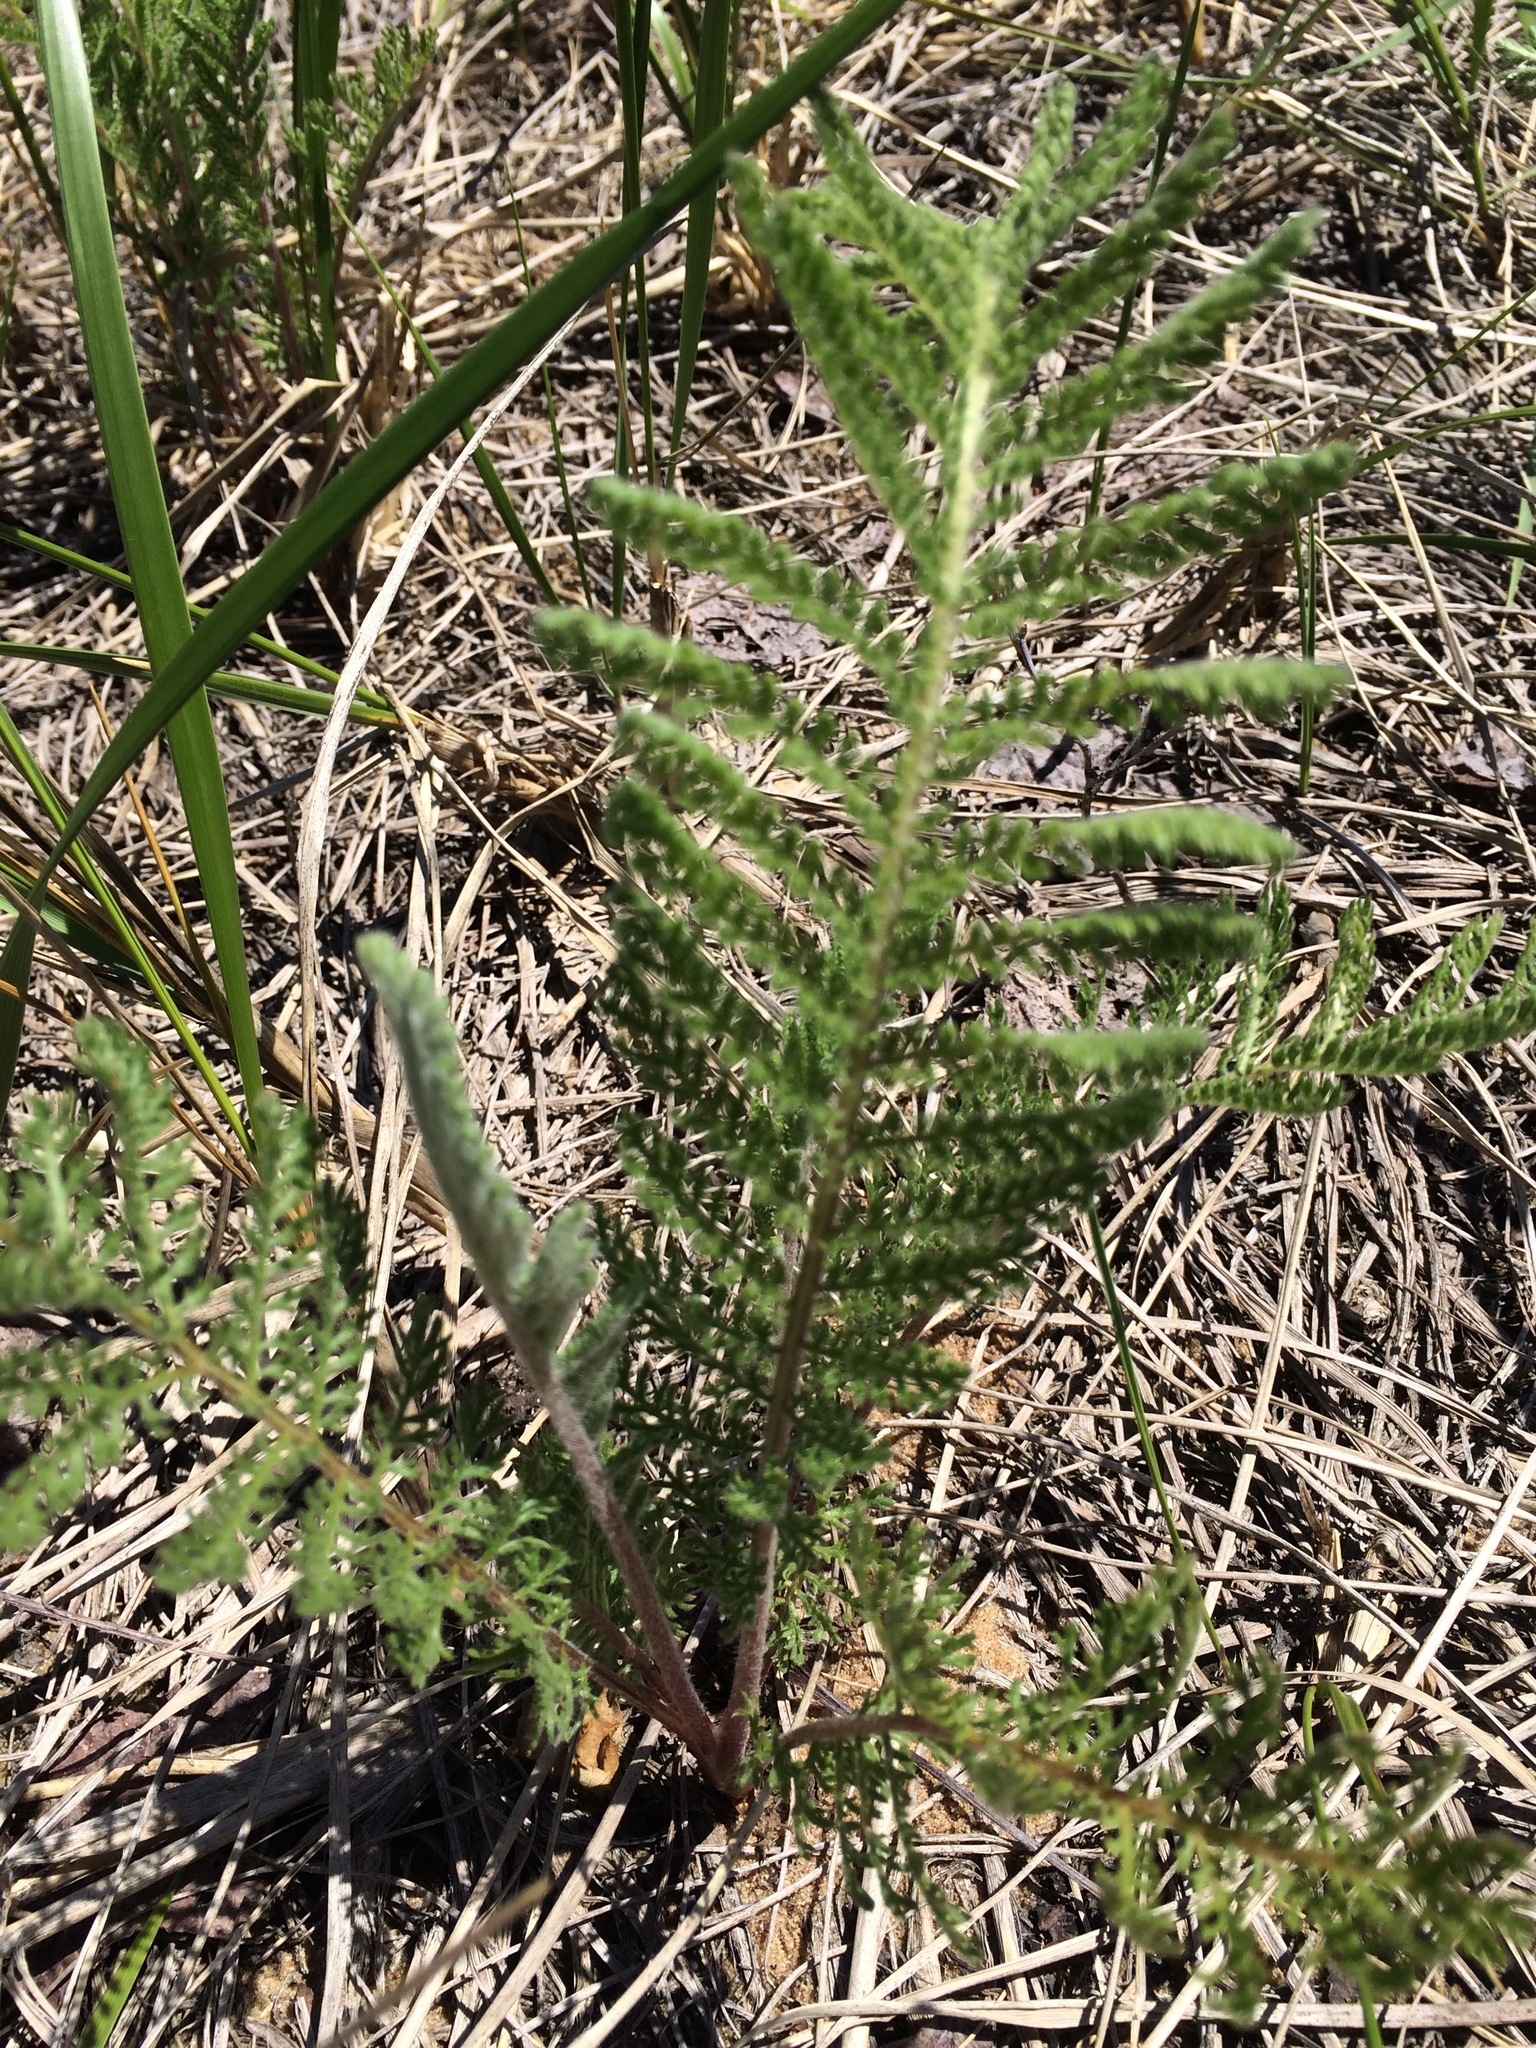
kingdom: Plantae
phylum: Tracheophyta
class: Magnoliopsida
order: Asterales
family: Asteraceae
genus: Tanacetum
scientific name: Tanacetum bipinnatum
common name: Dwarf tansy
